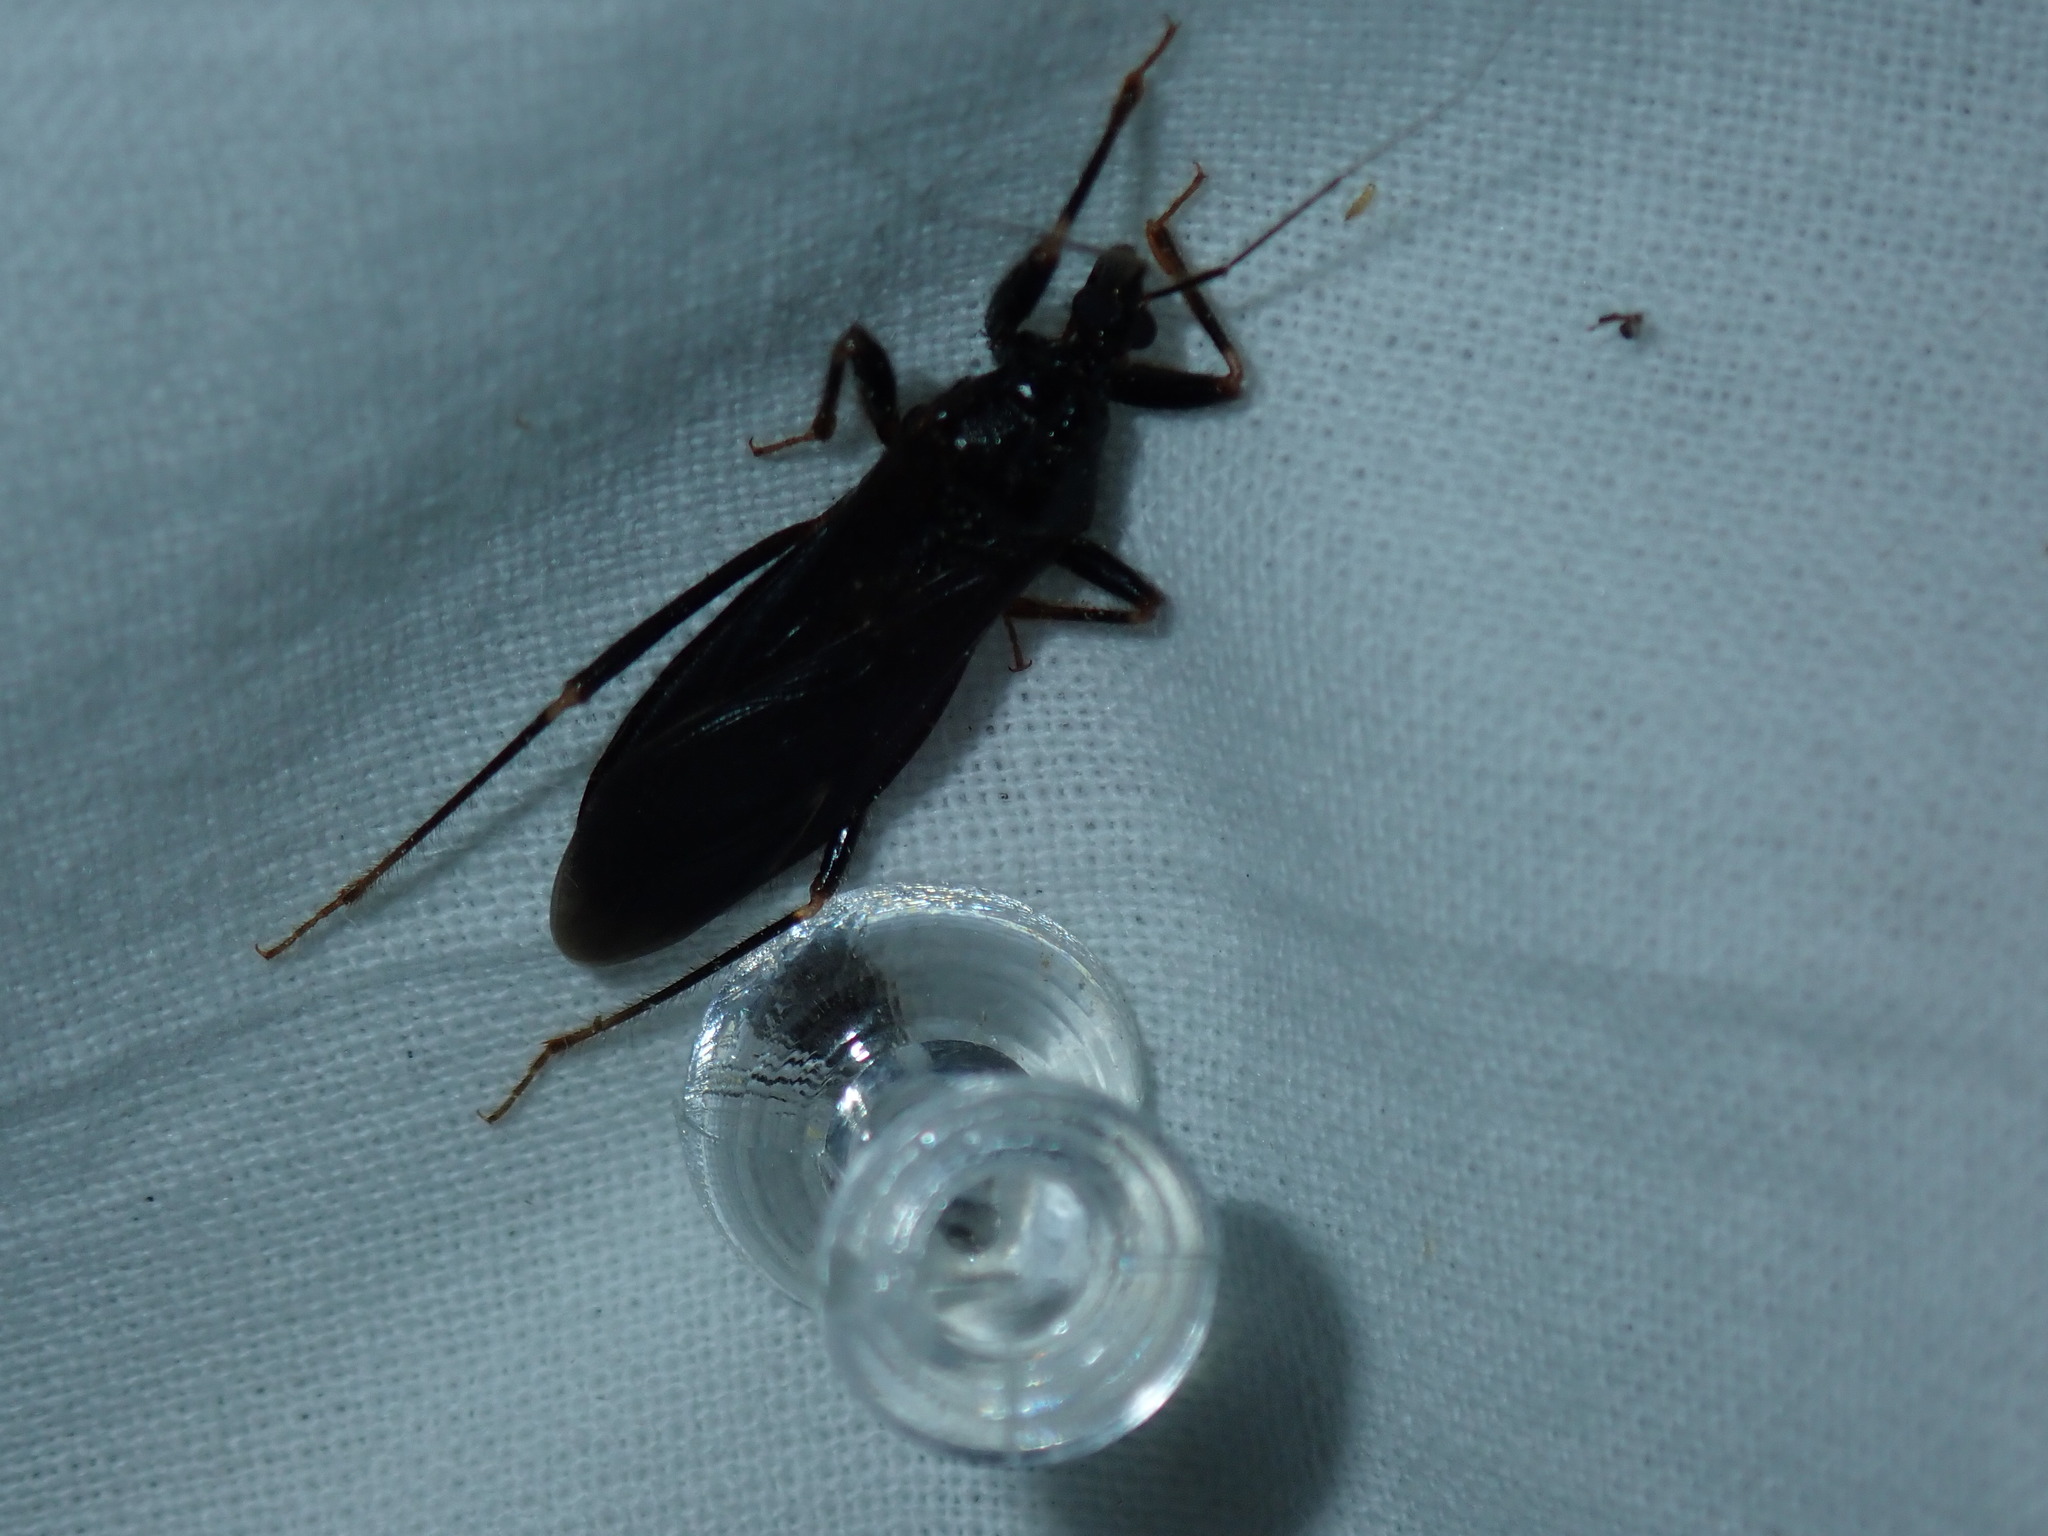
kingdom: Animalia
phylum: Arthropoda
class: Insecta
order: Hemiptera
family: Reduviidae
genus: Reduvius
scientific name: Reduvius personatus
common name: Masked hunter
